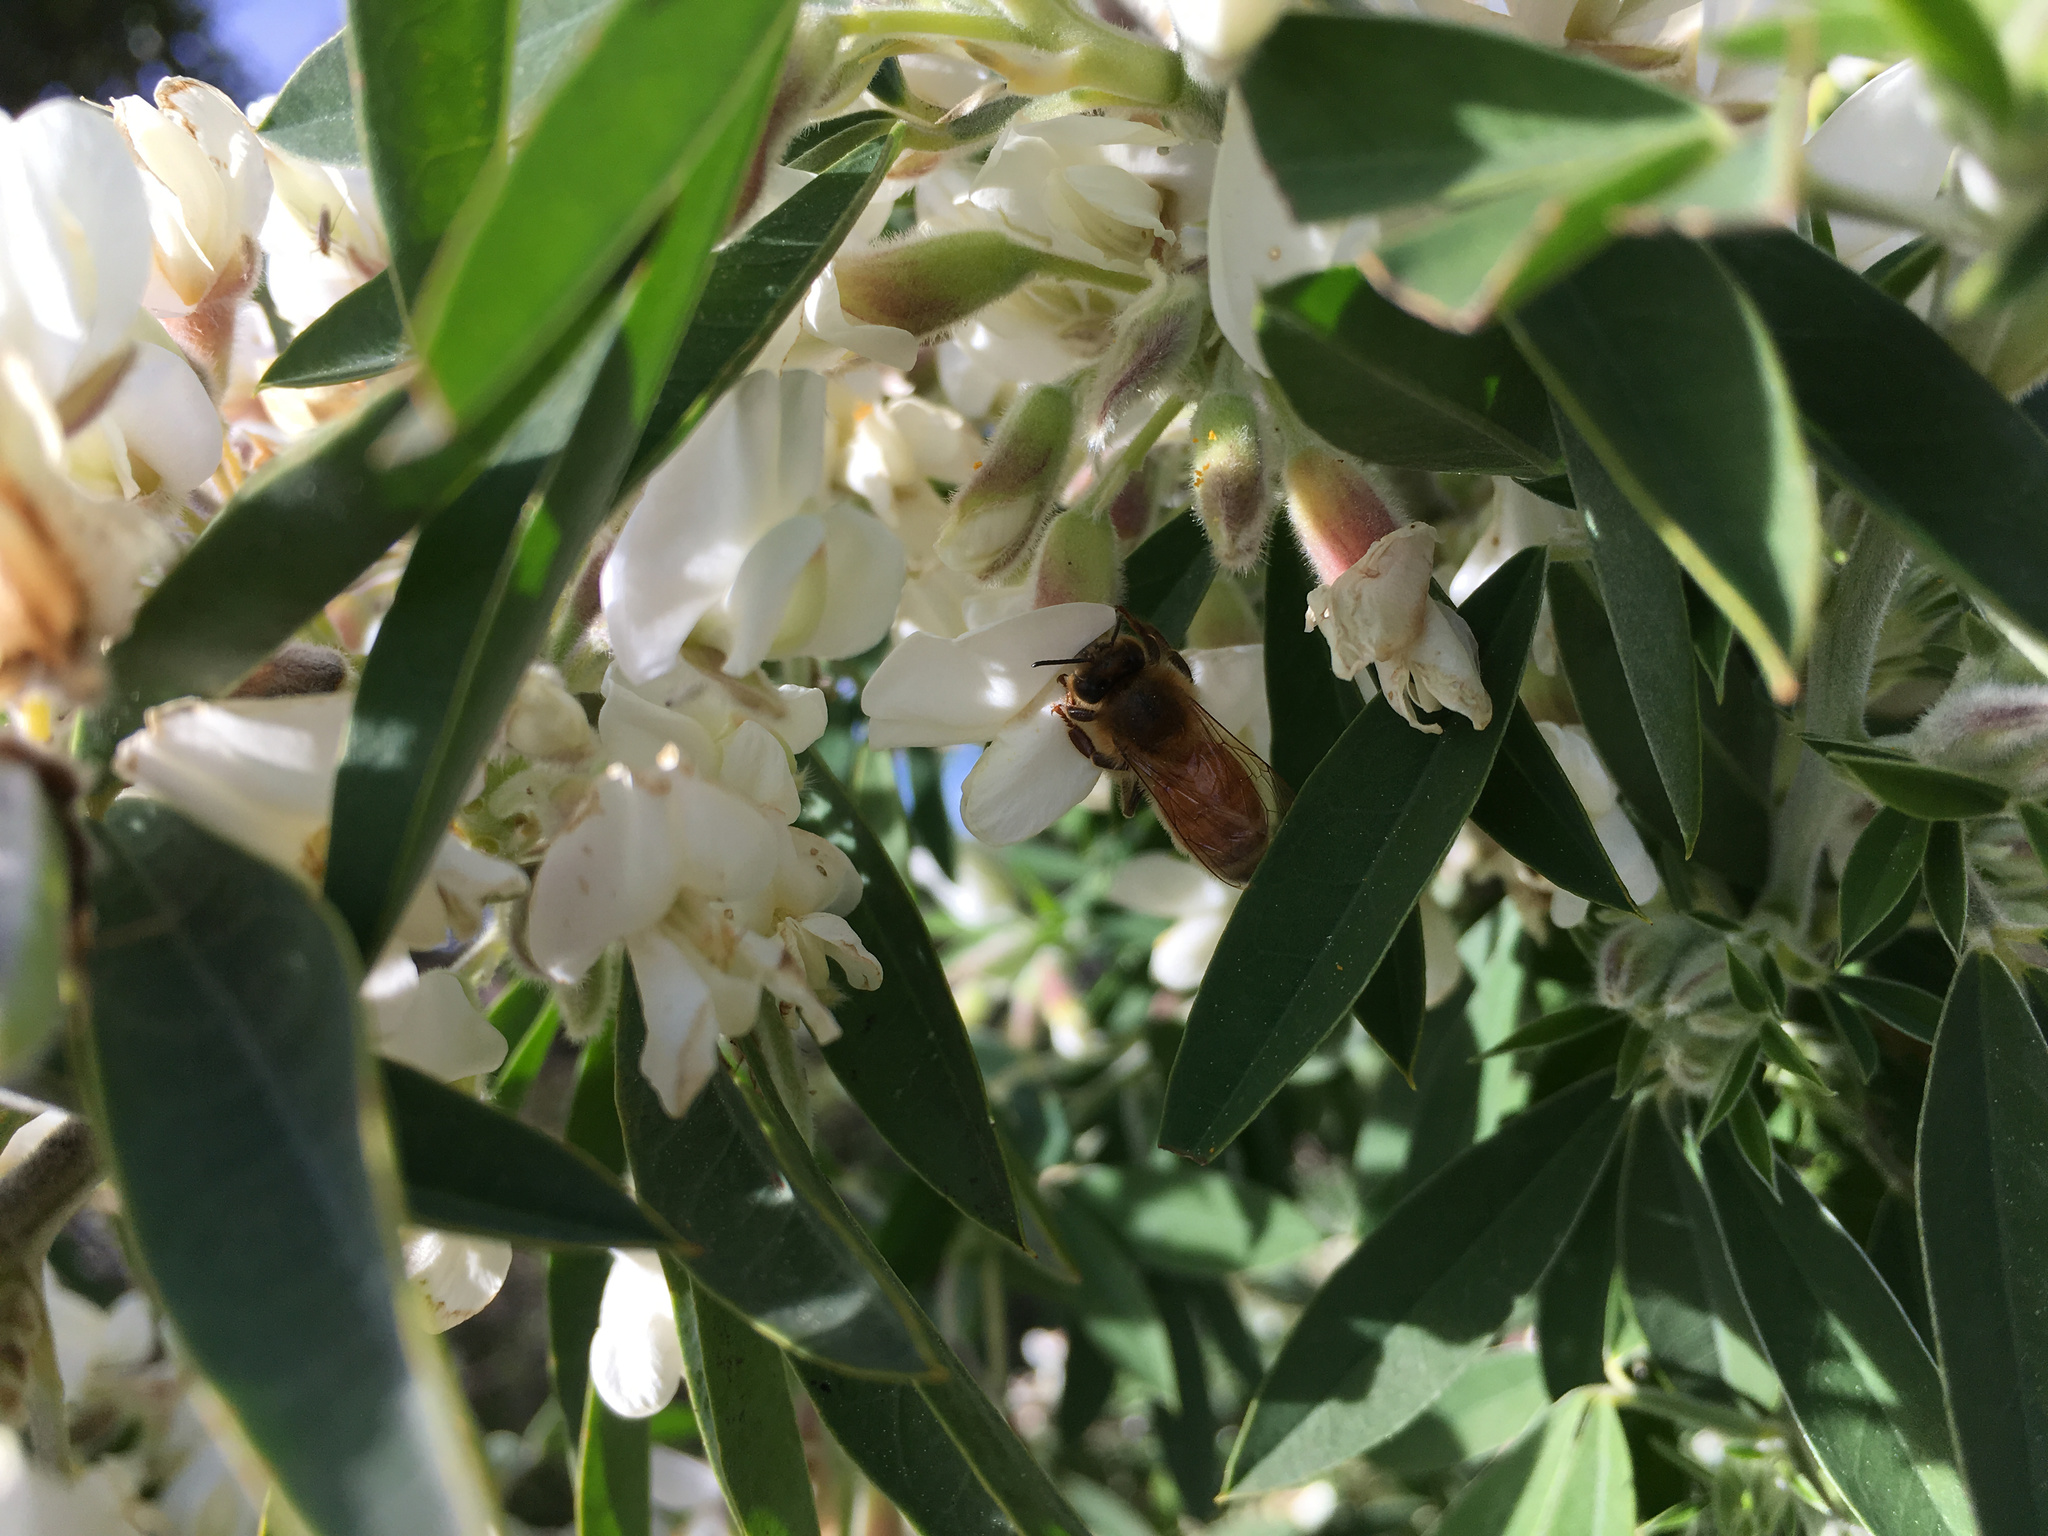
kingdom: Animalia
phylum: Arthropoda
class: Insecta
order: Hymenoptera
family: Apidae
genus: Apis
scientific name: Apis mellifera
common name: Honey bee
